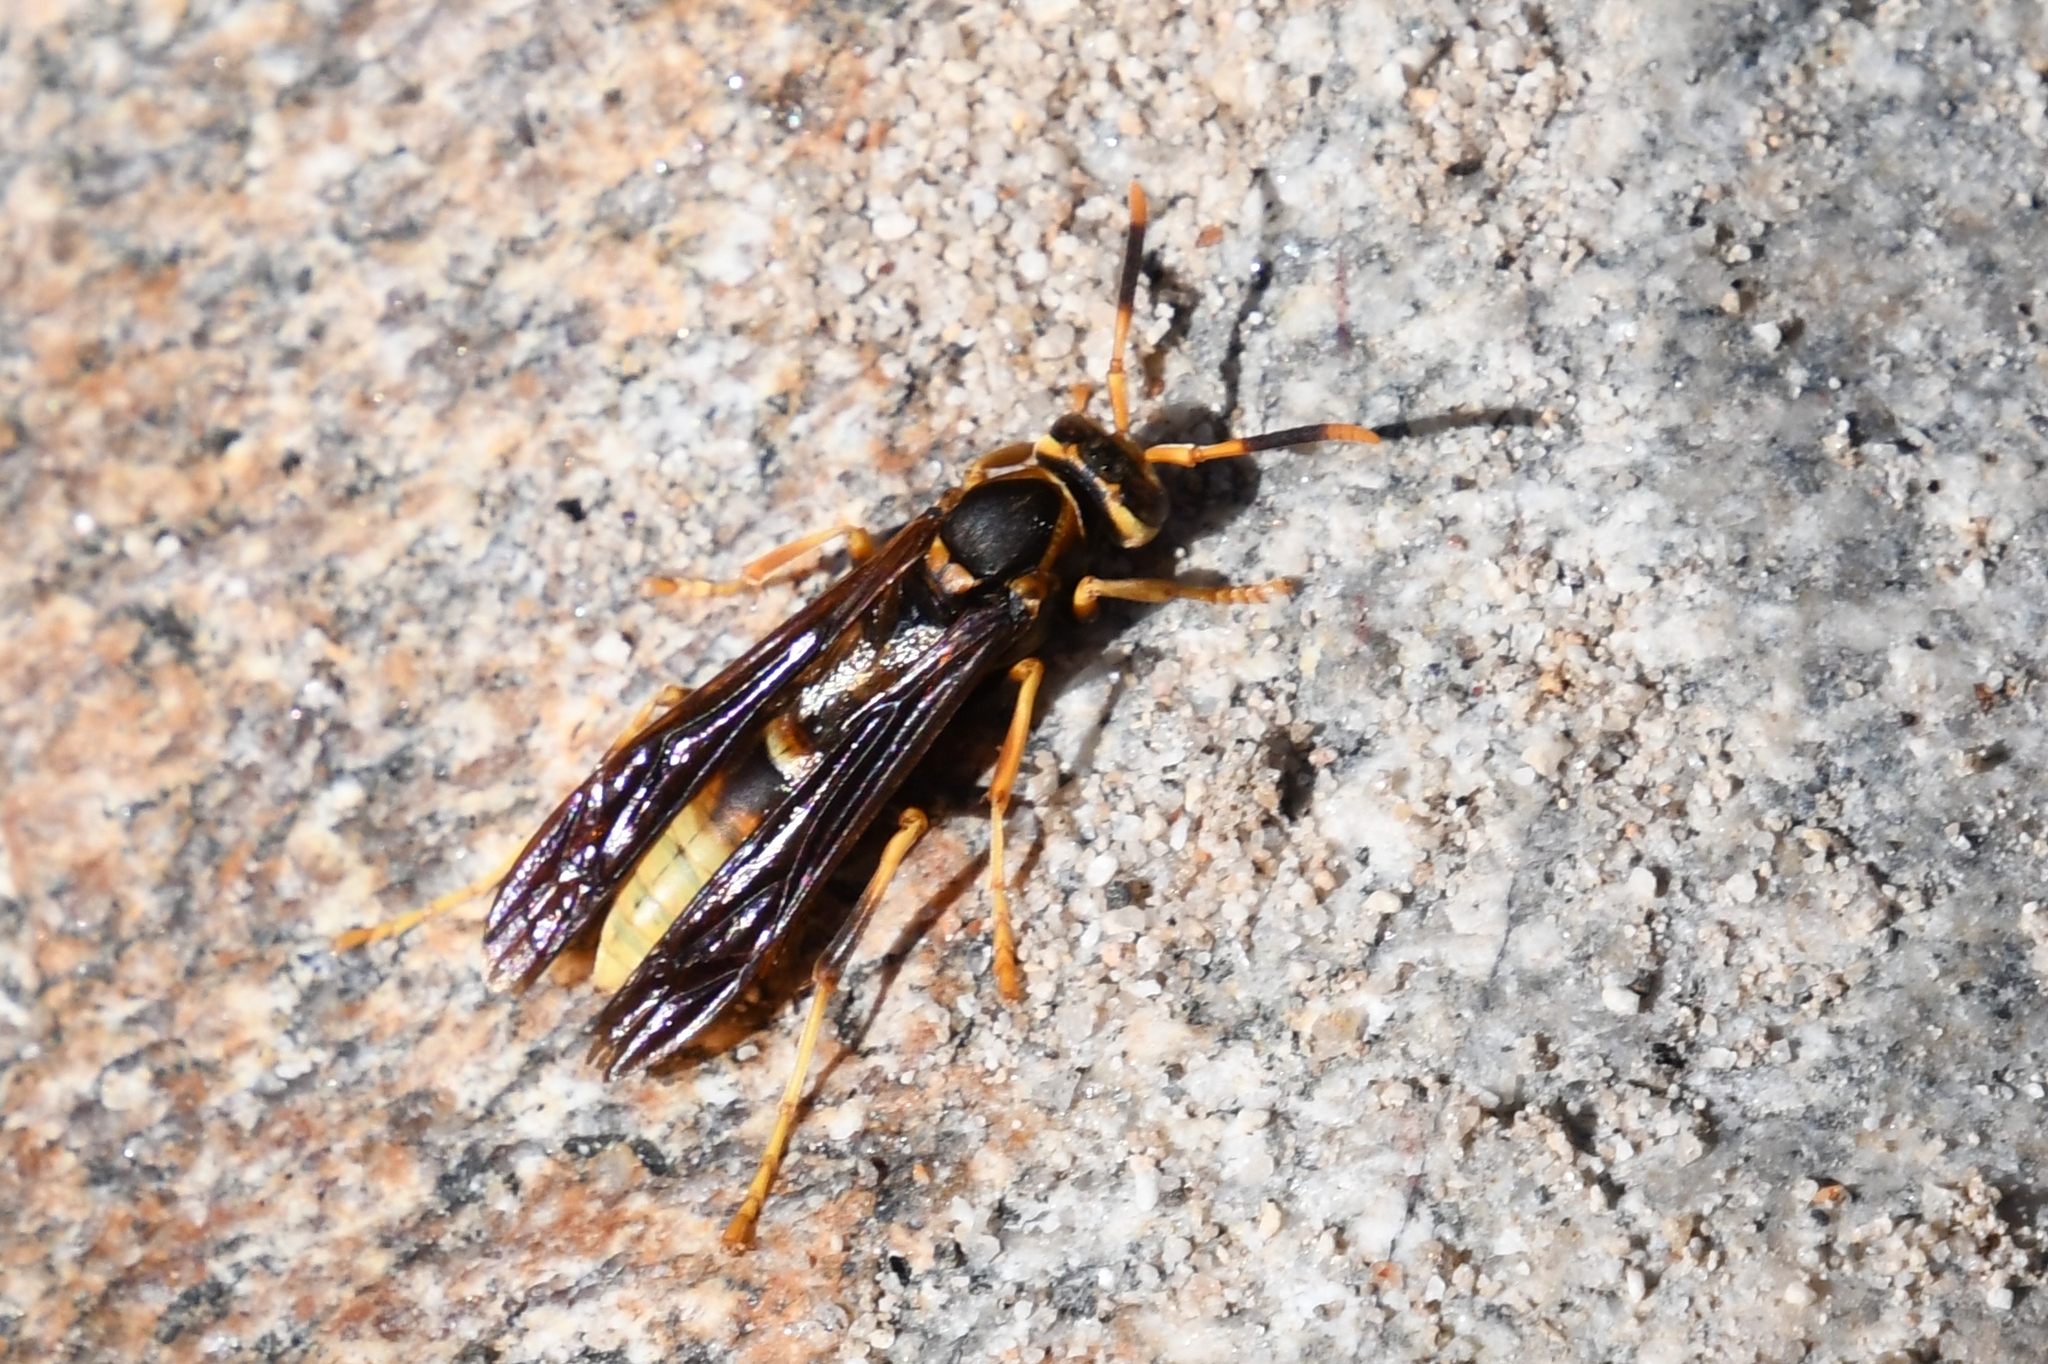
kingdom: Animalia
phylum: Arthropoda
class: Insecta
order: Hymenoptera
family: Eumenidae
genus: Polistes
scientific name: Polistes comanchus
